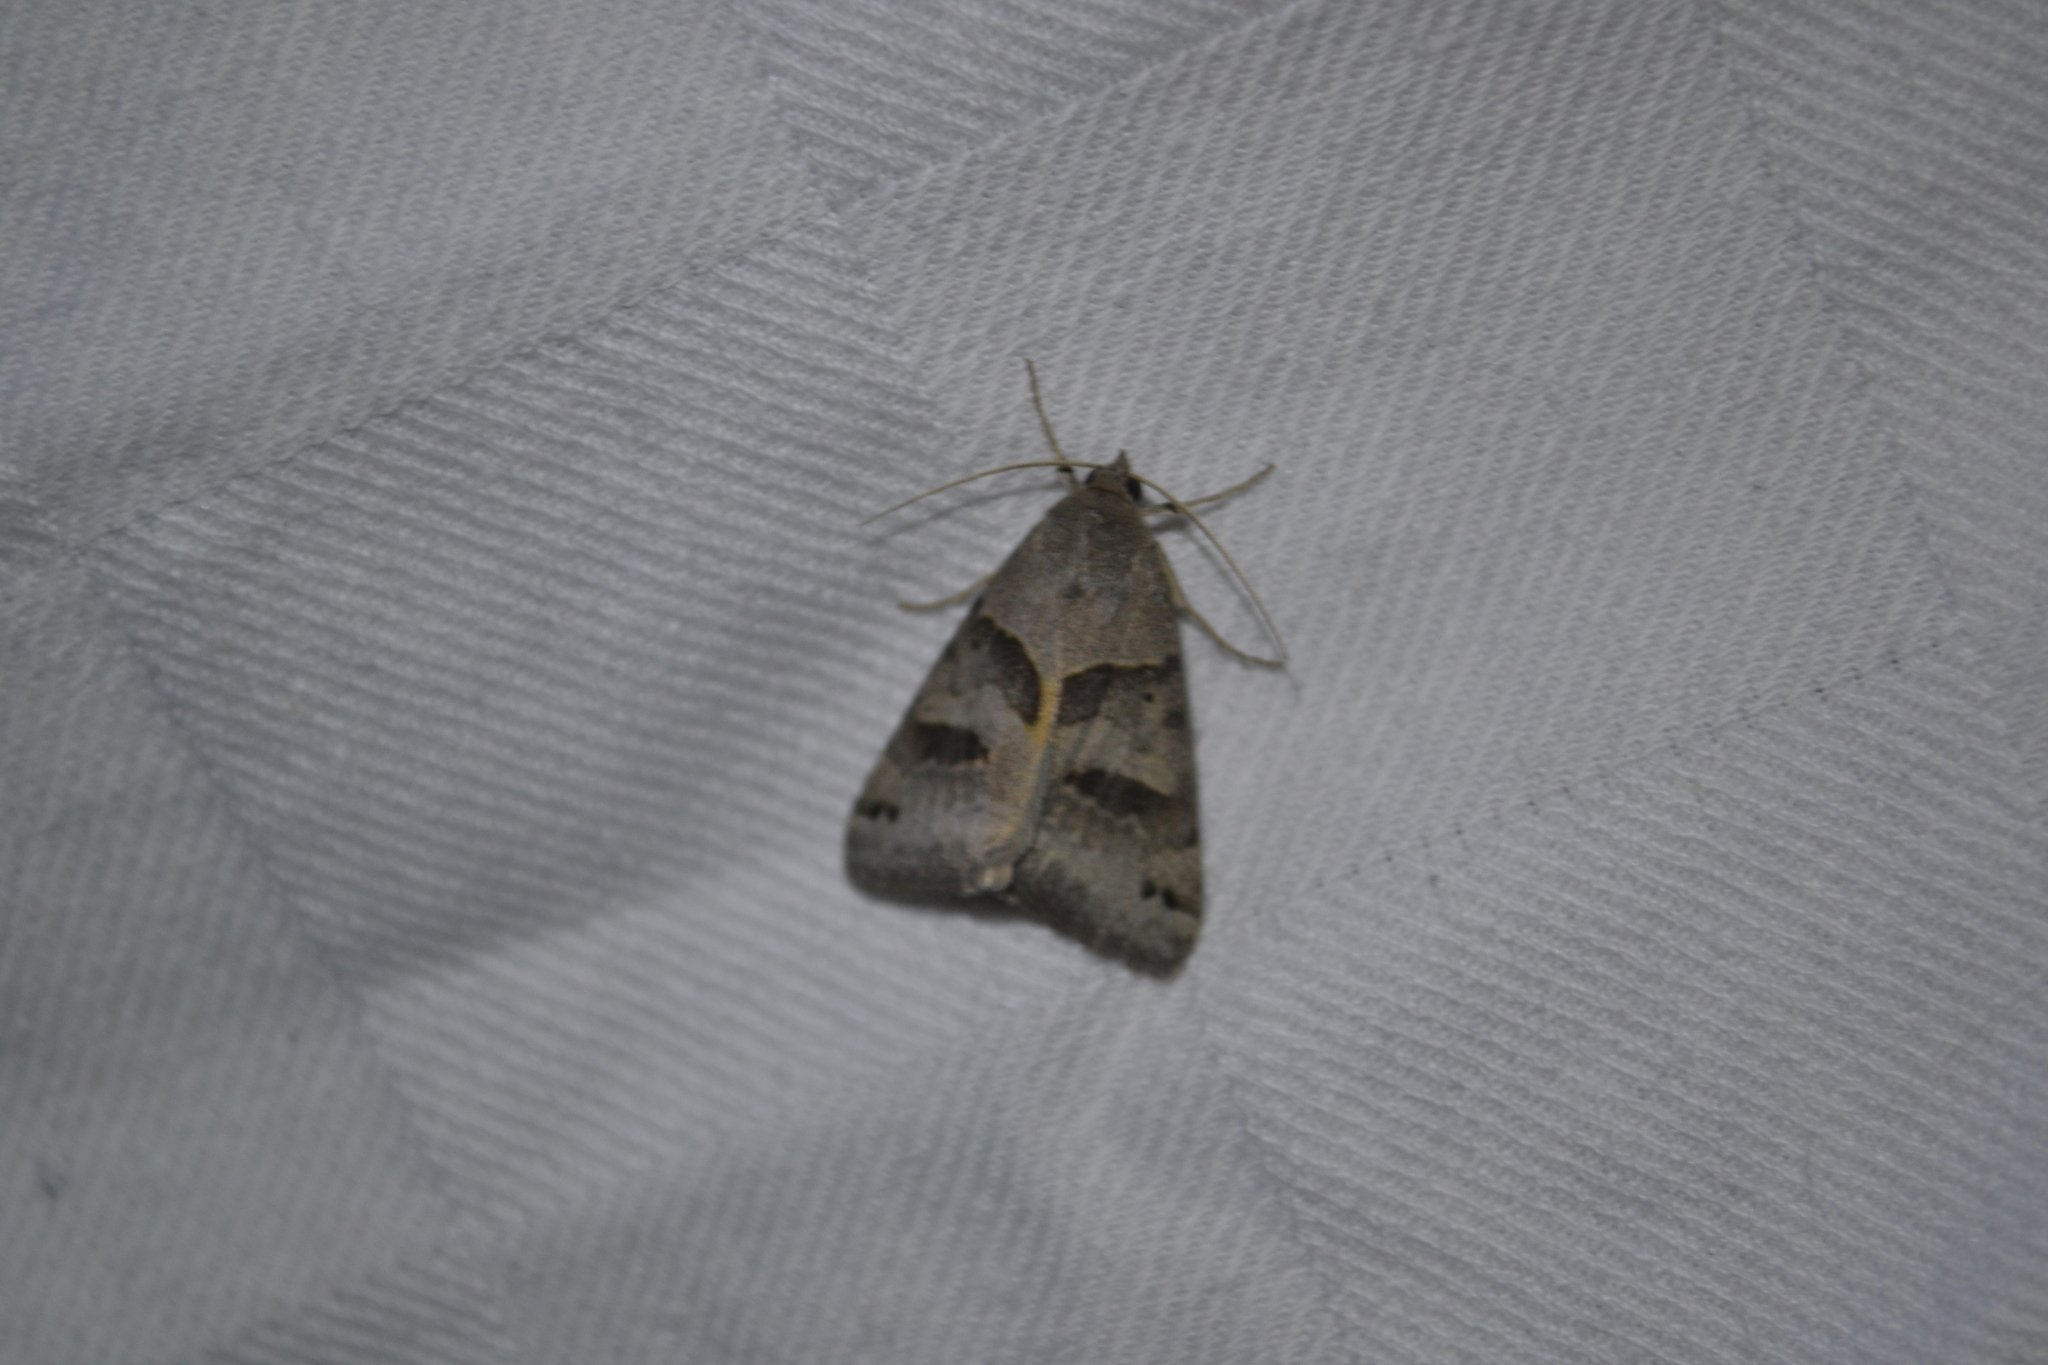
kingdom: Animalia
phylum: Arthropoda
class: Insecta
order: Lepidoptera
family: Erebidae
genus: Caenurgina
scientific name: Caenurgina erechtea
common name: Forage looper moth
